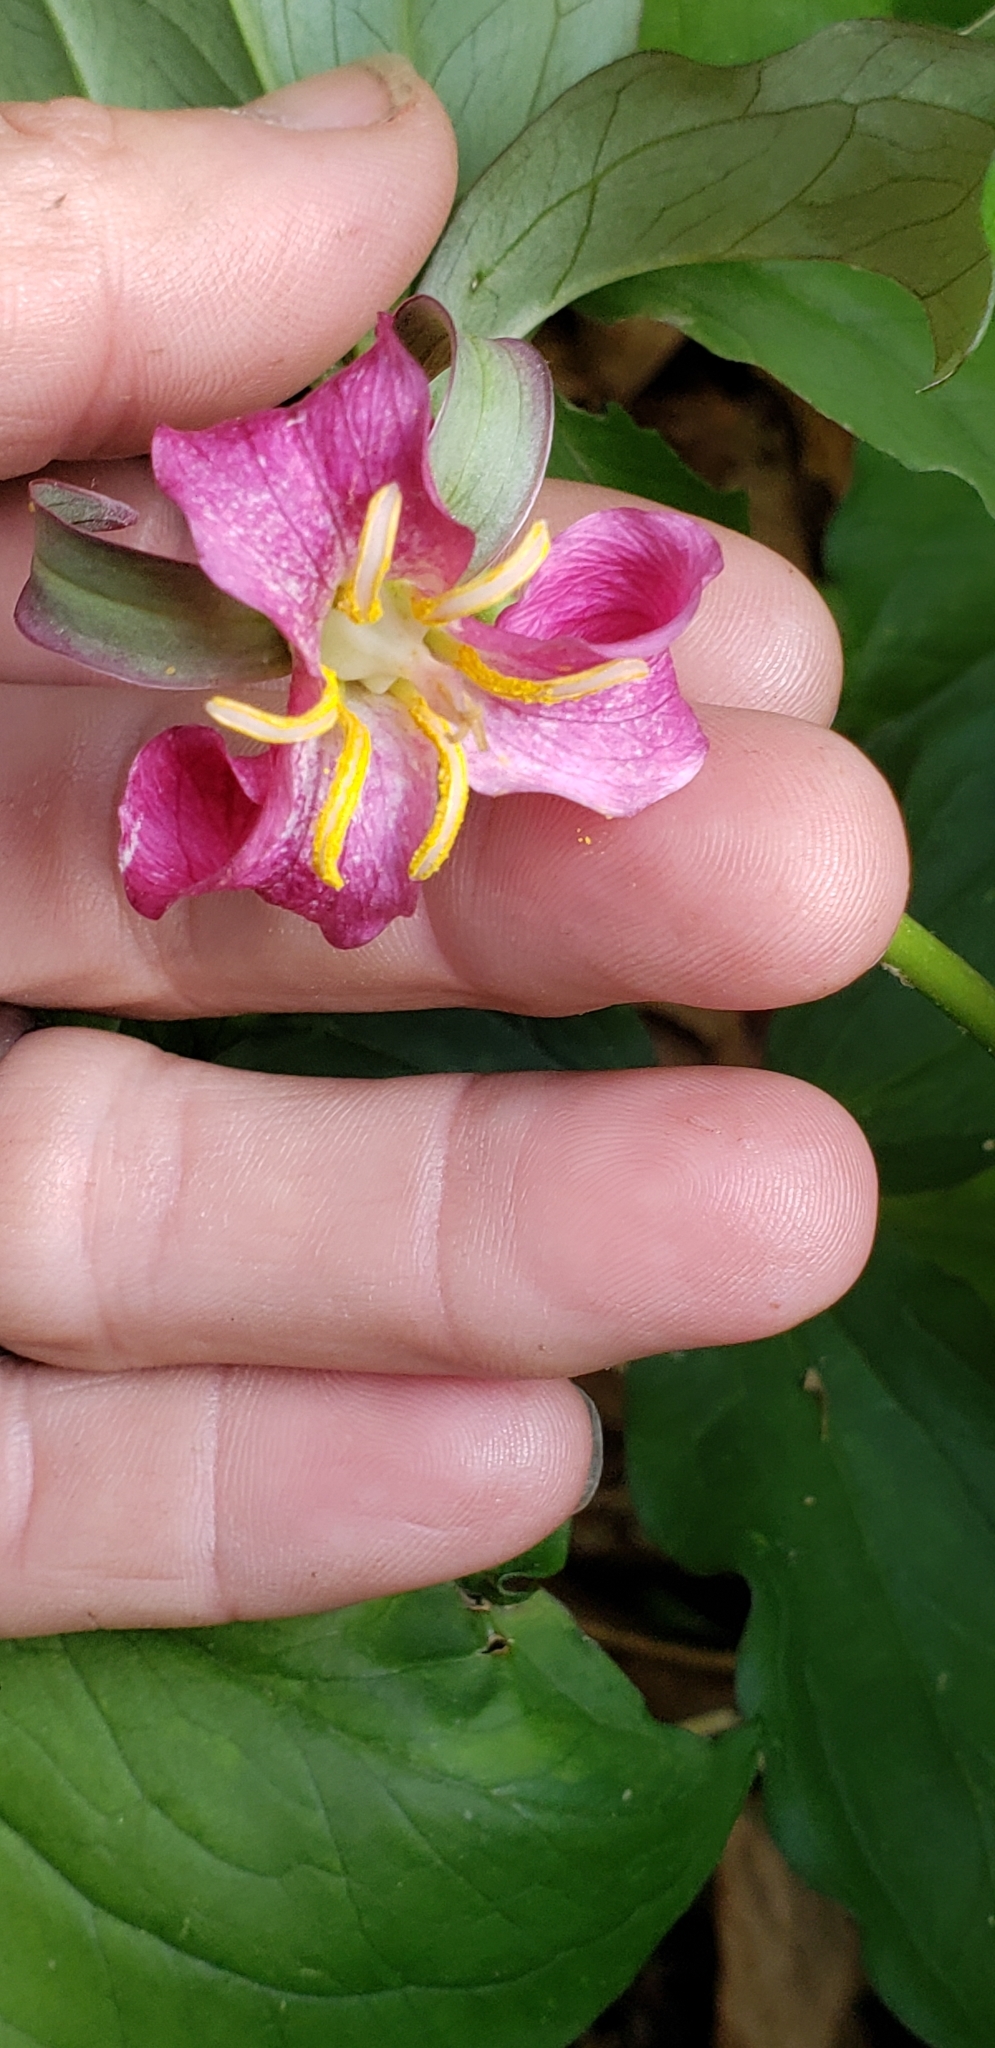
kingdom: Plantae
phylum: Tracheophyta
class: Liliopsida
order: Liliales
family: Melanthiaceae
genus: Trillium
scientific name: Trillium catesbaei
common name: Bashful trillium
